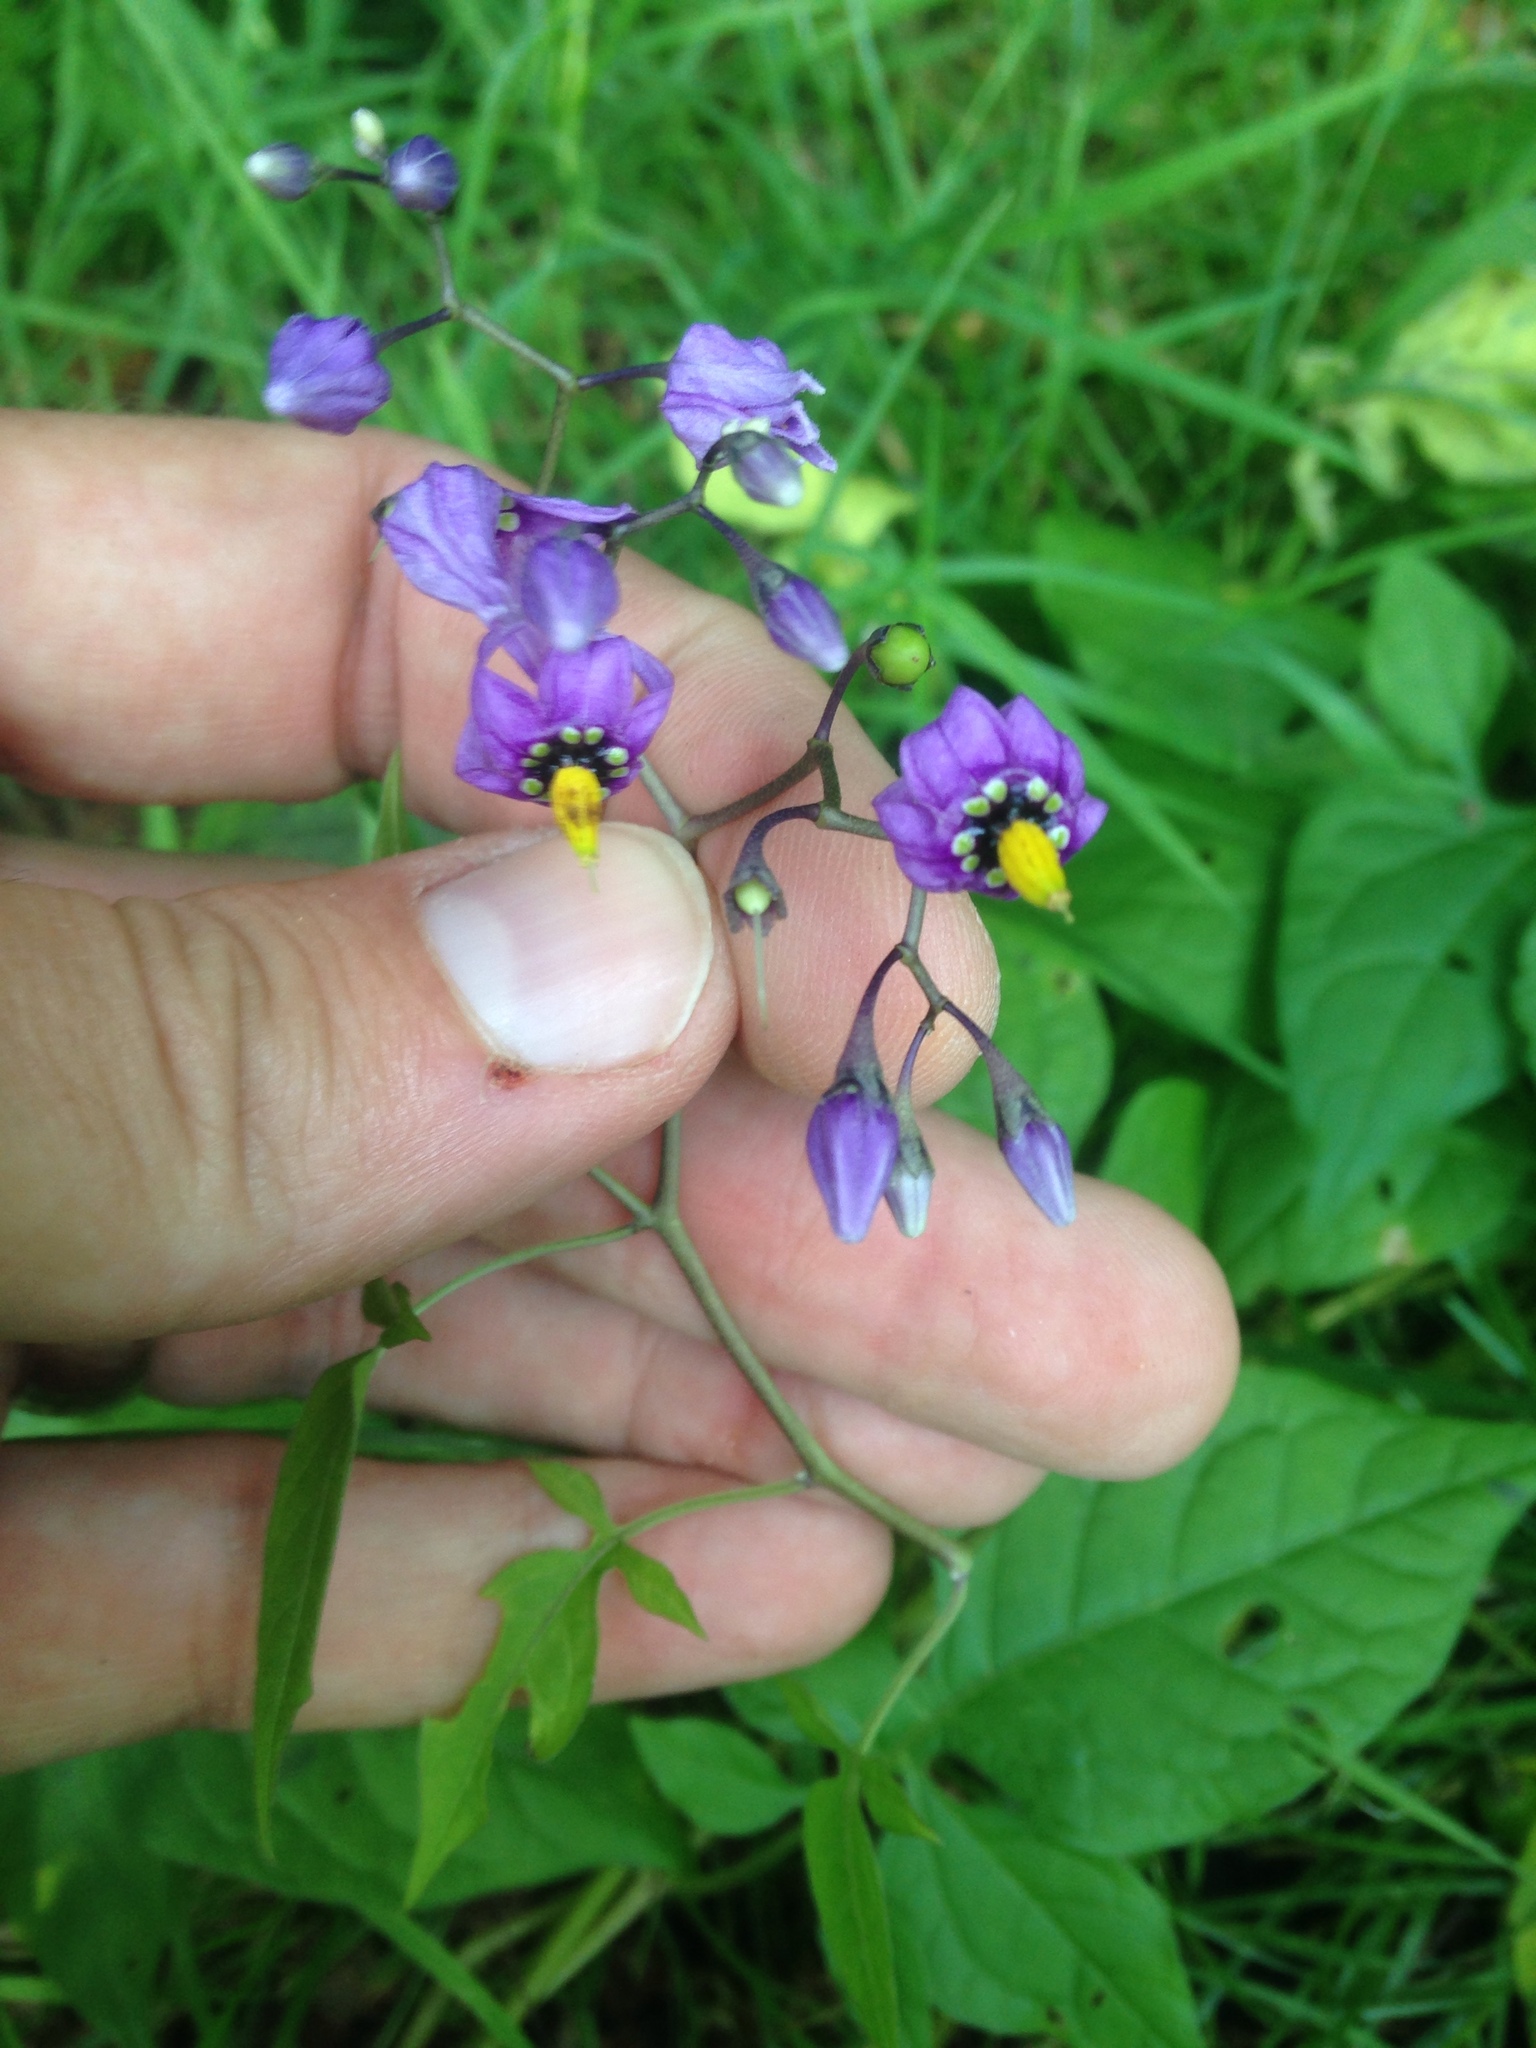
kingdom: Plantae
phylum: Tracheophyta
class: Magnoliopsida
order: Solanales
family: Solanaceae
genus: Solanum
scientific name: Solanum dulcamara
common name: Climbing nightshade
